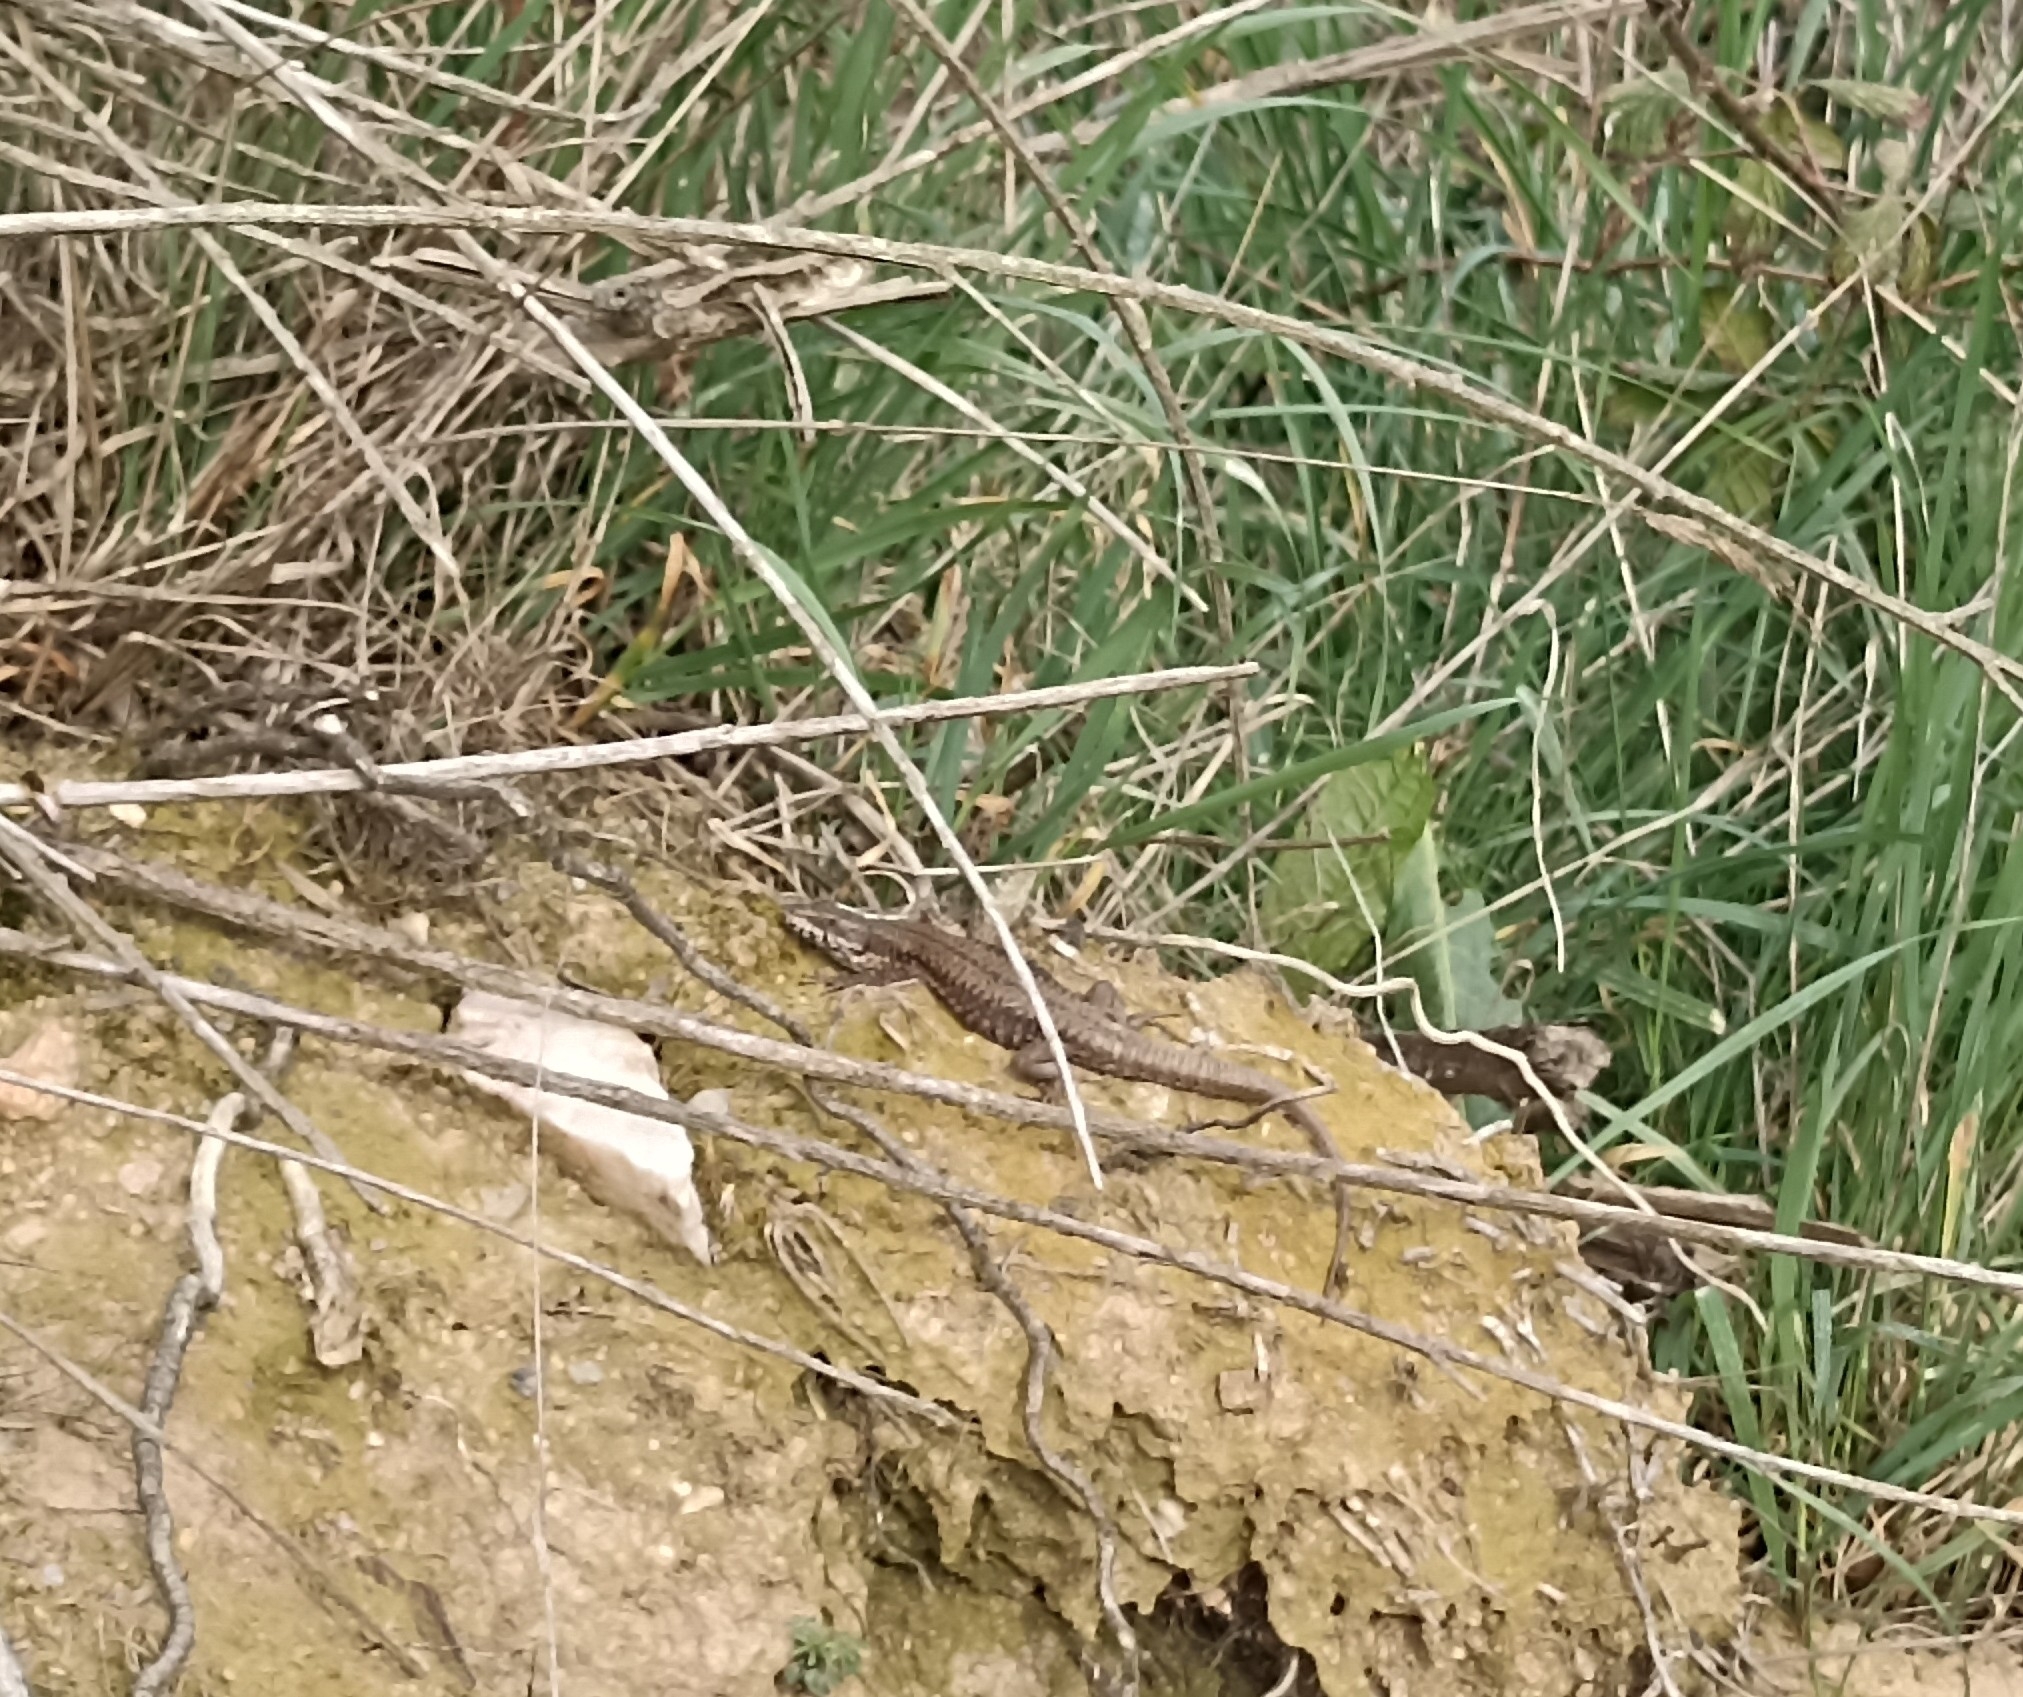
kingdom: Animalia
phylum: Chordata
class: Squamata
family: Lacertidae
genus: Podarcis
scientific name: Podarcis muralis
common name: Common wall lizard
